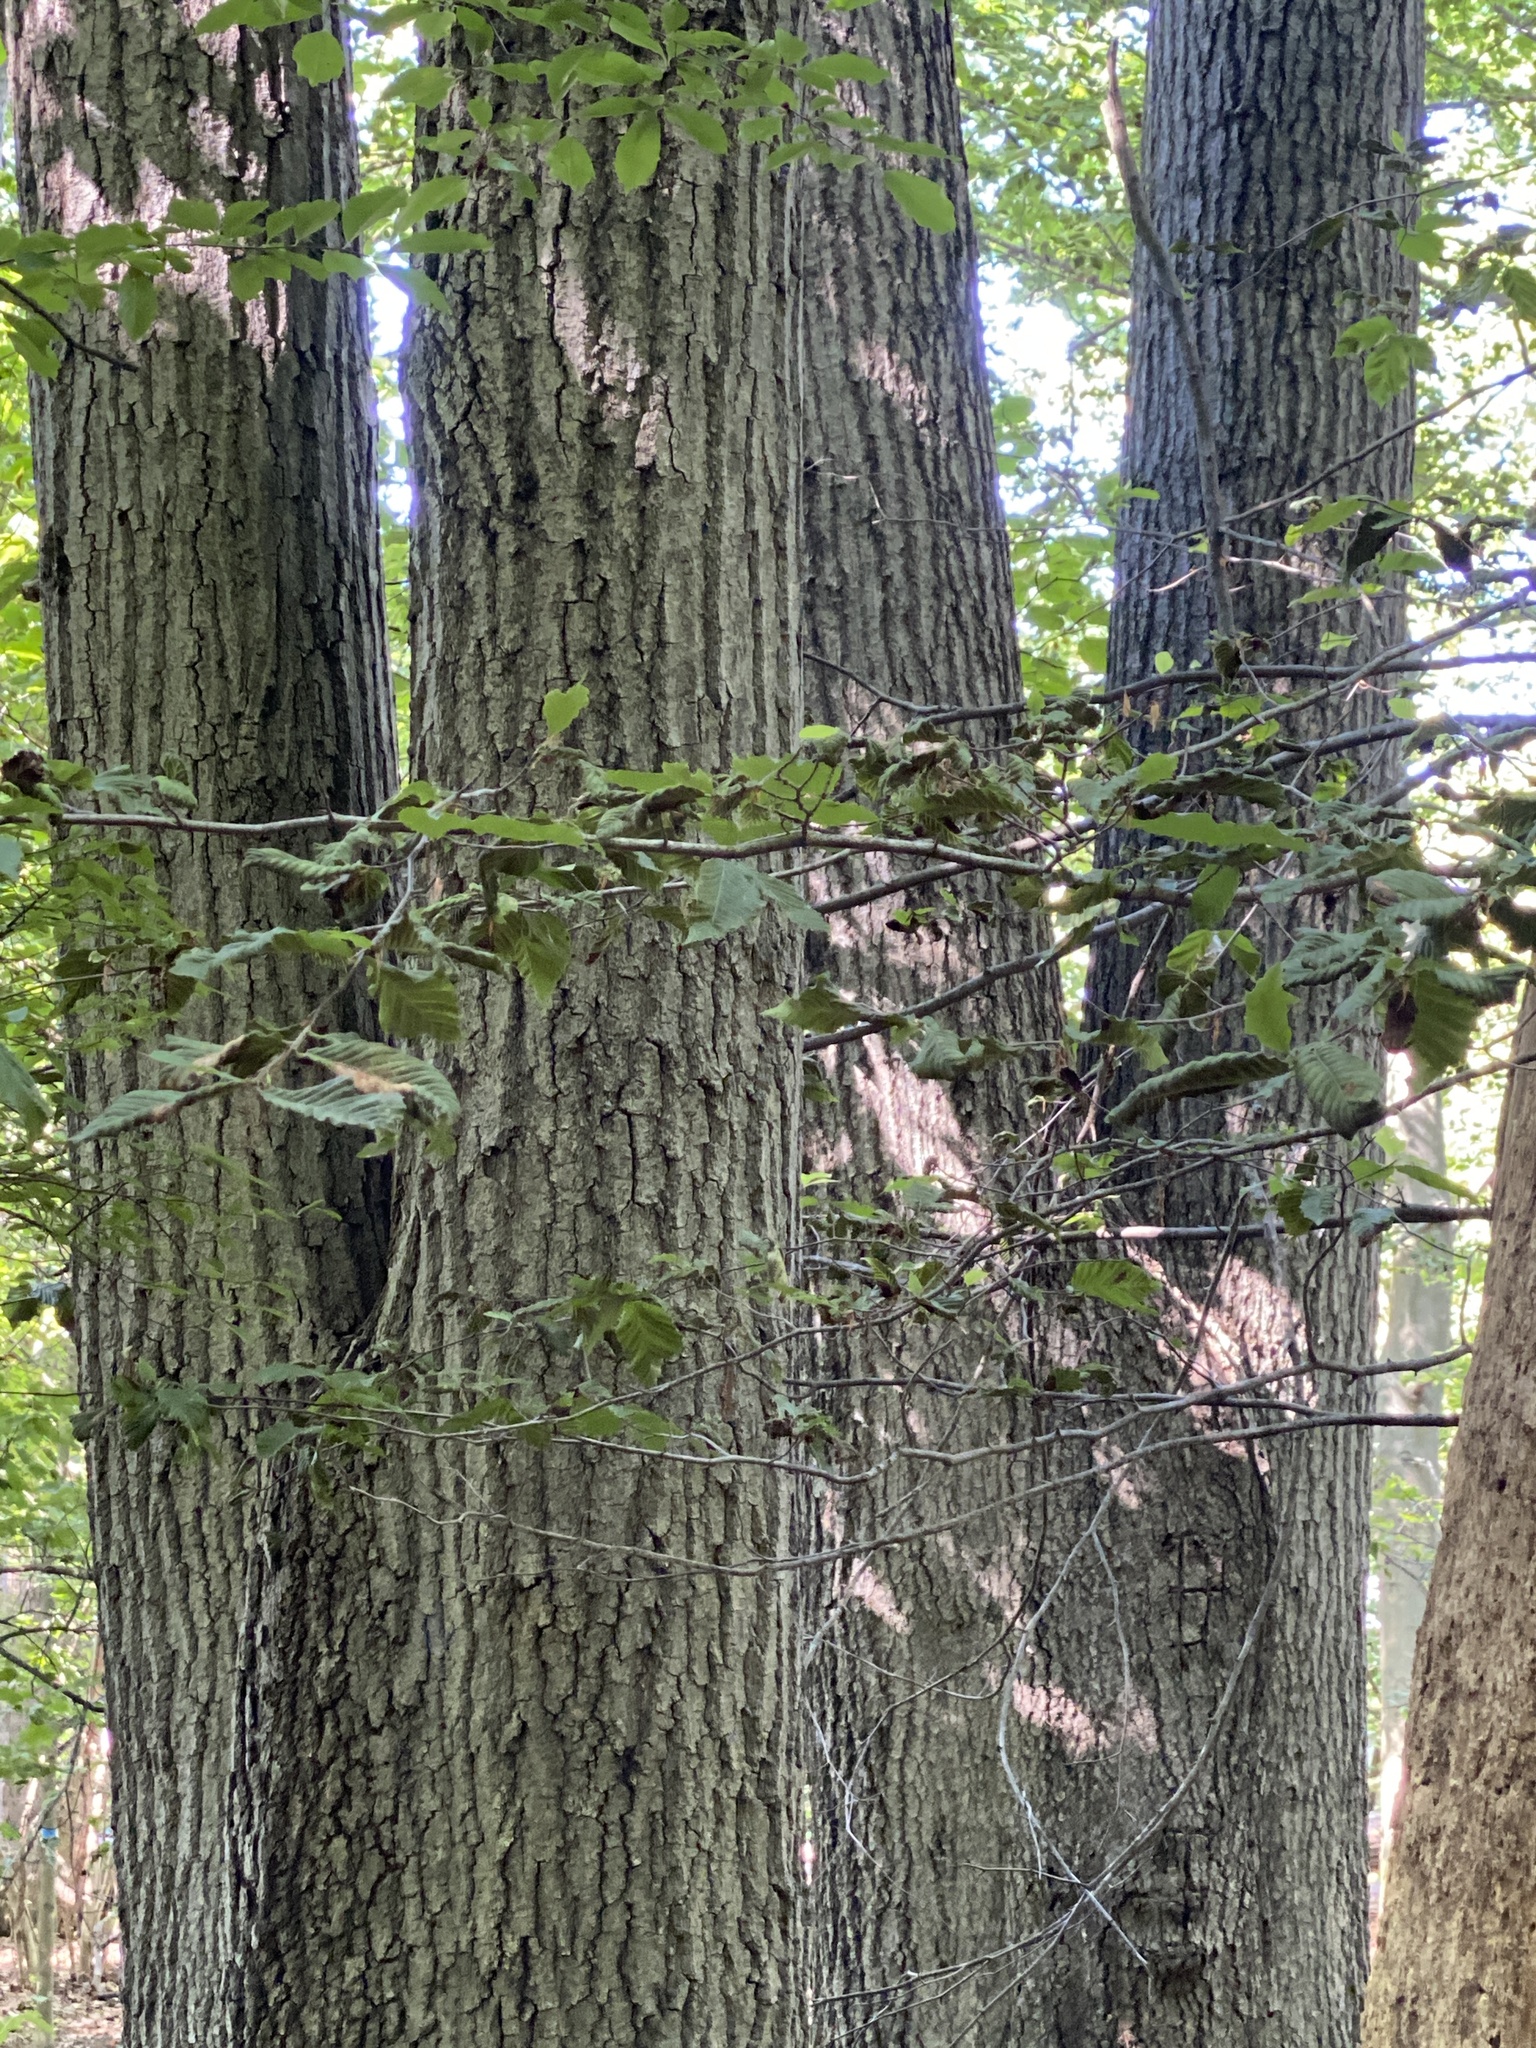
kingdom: Plantae
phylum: Tracheophyta
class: Magnoliopsida
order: Fagales
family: Fagaceae
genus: Quercus
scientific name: Quercus rubra
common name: Red oak
